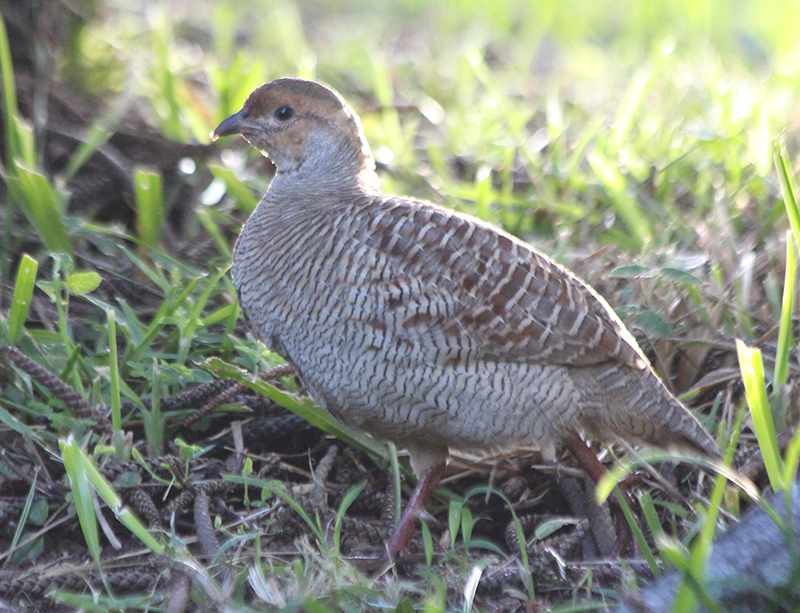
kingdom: Animalia
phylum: Chordata
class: Aves
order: Galliformes
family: Phasianidae
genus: Ortygornis
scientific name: Ortygornis pondicerianus
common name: Grey francolin
